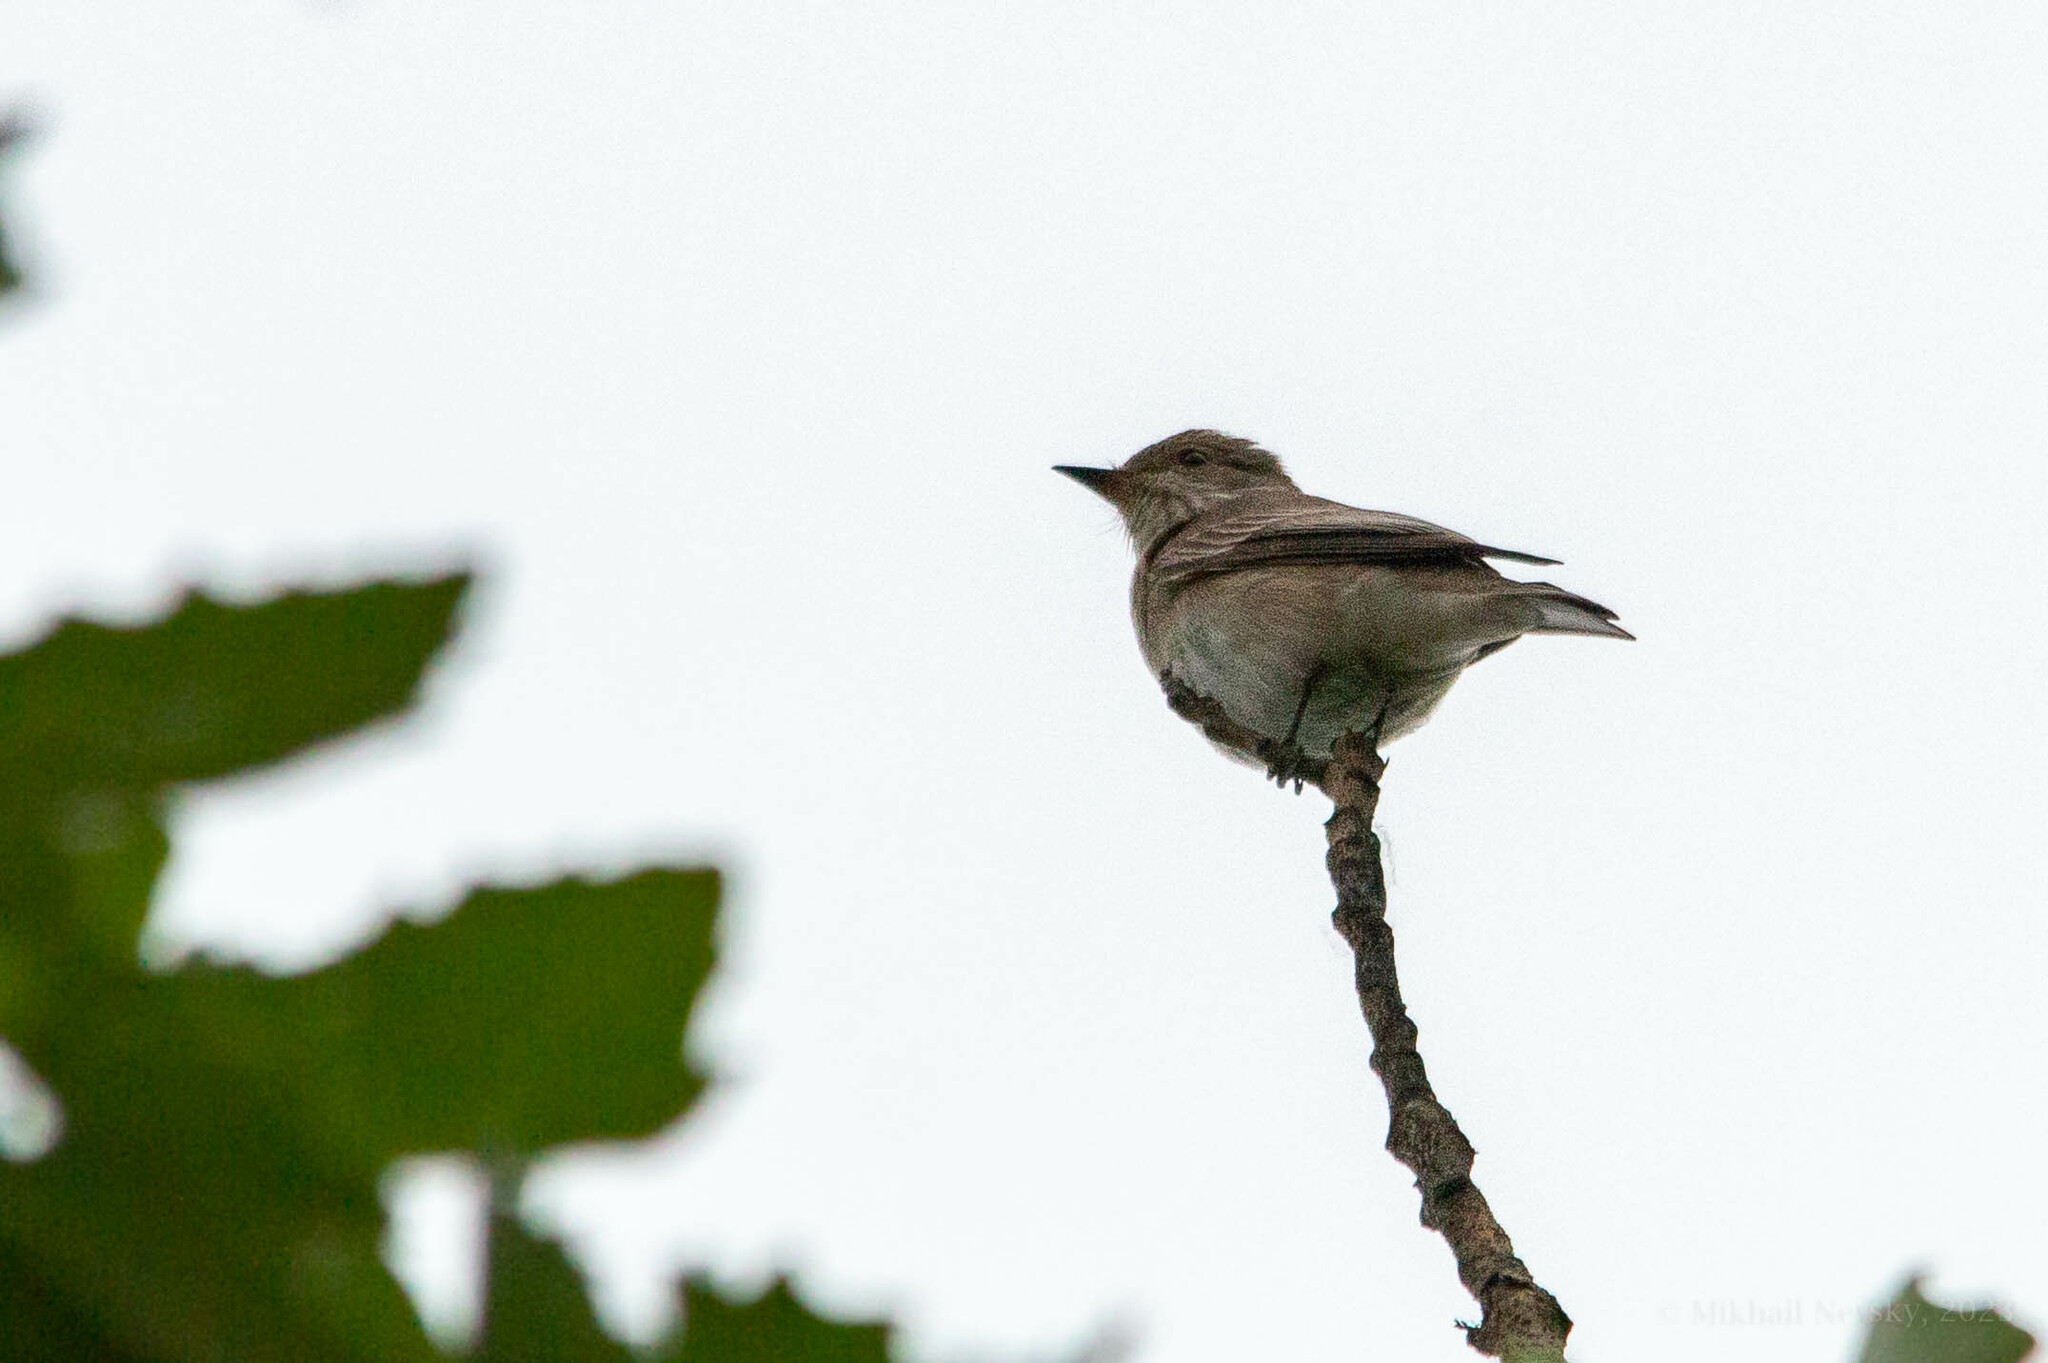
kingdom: Animalia
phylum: Chordata
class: Aves
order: Passeriformes
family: Muscicapidae
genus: Muscicapa
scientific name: Muscicapa striata
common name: Spotted flycatcher
